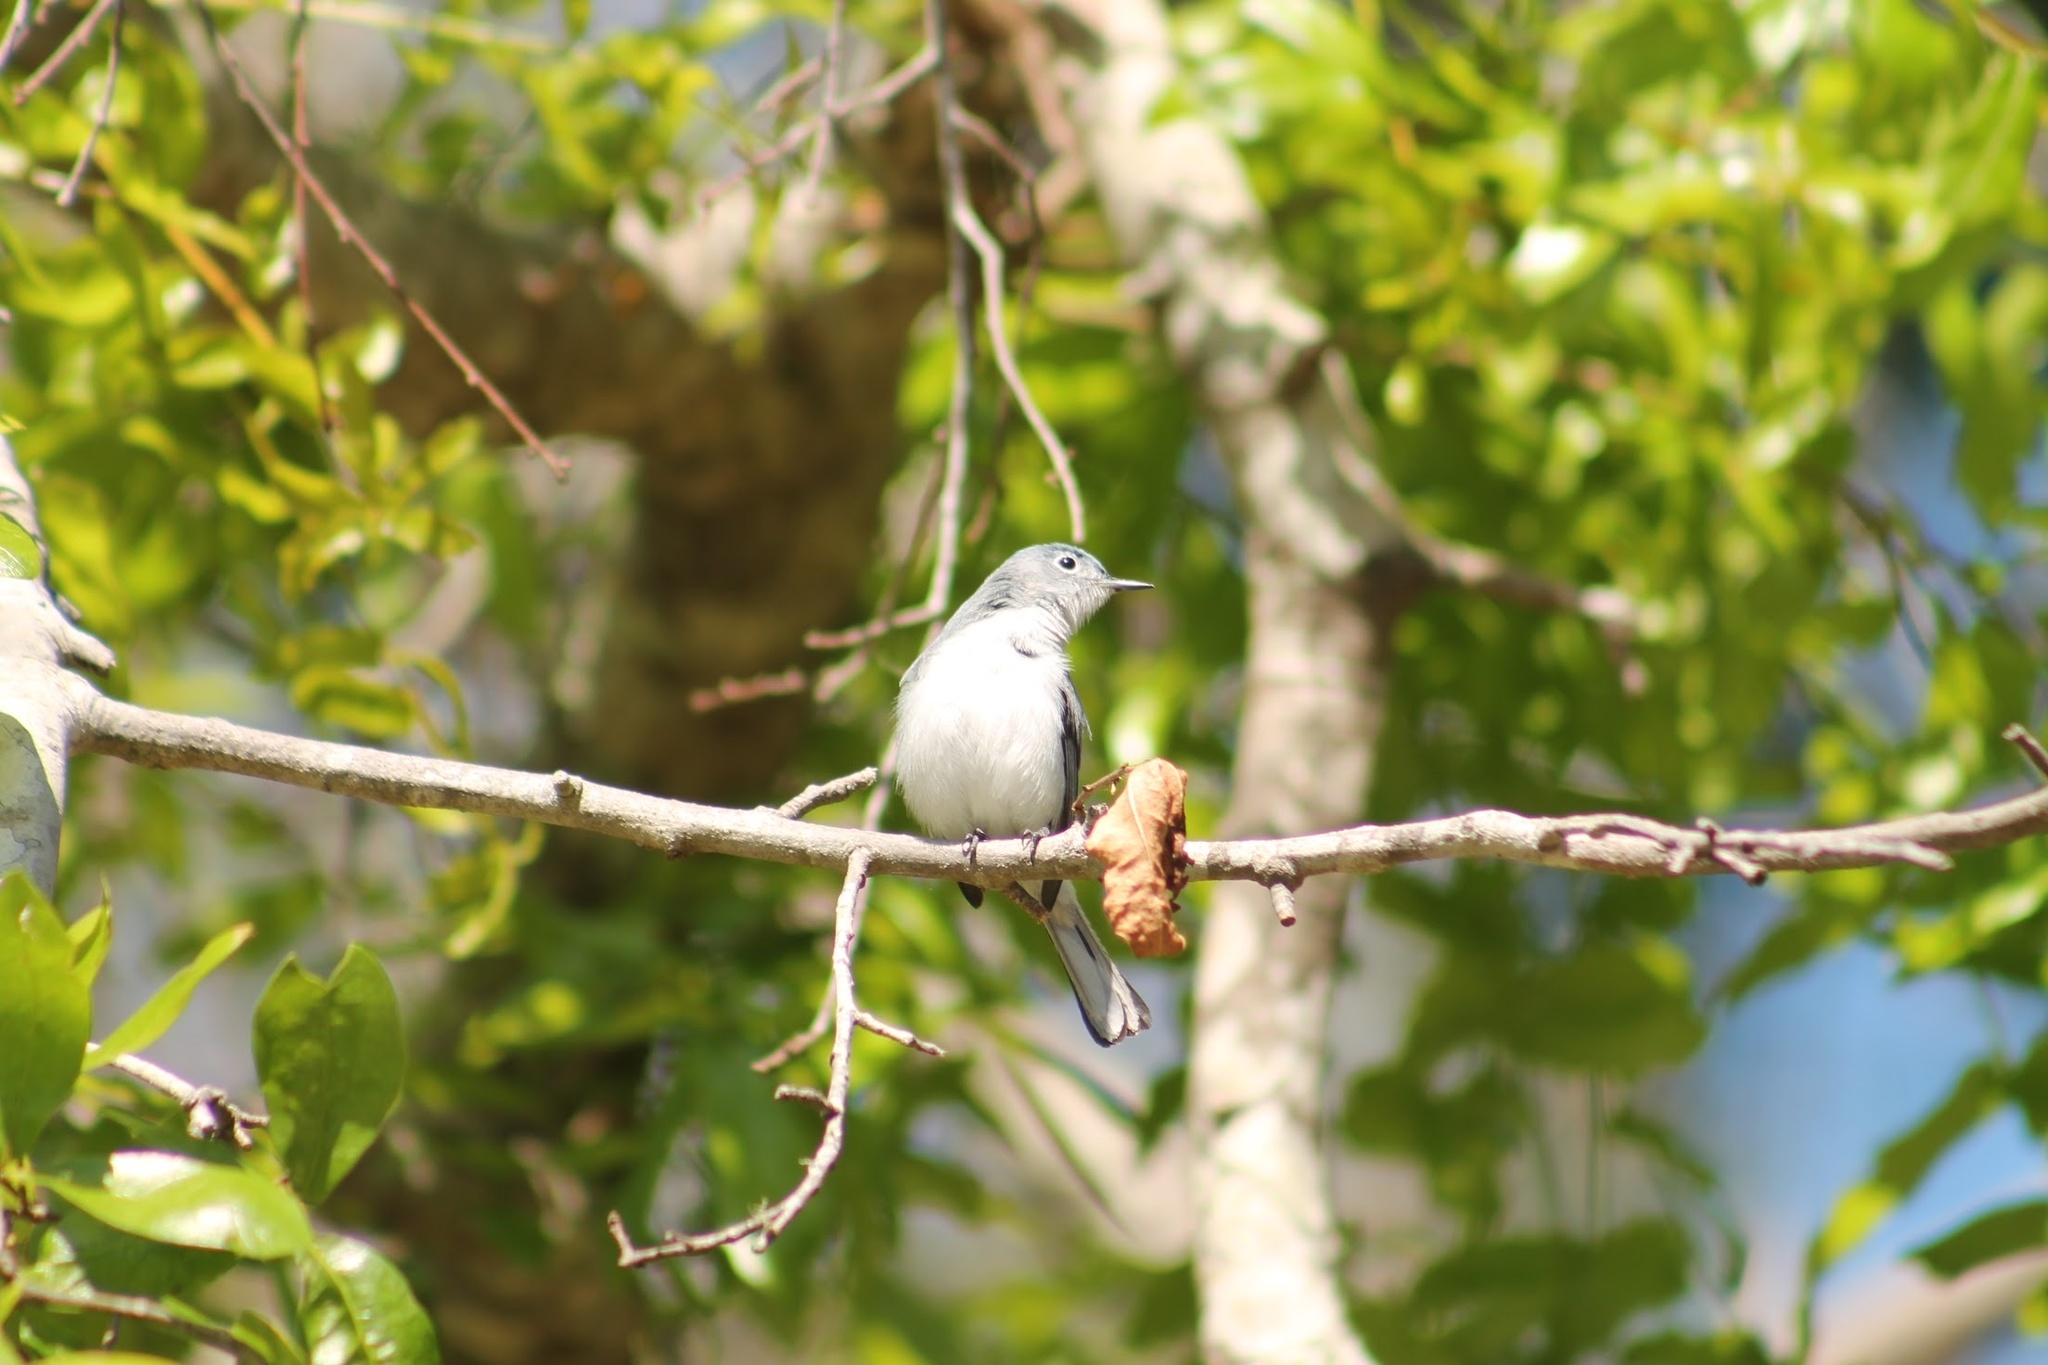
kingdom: Animalia
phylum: Chordata
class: Aves
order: Passeriformes
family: Polioptilidae
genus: Polioptila
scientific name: Polioptila caerulea
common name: Blue-gray gnatcatcher
